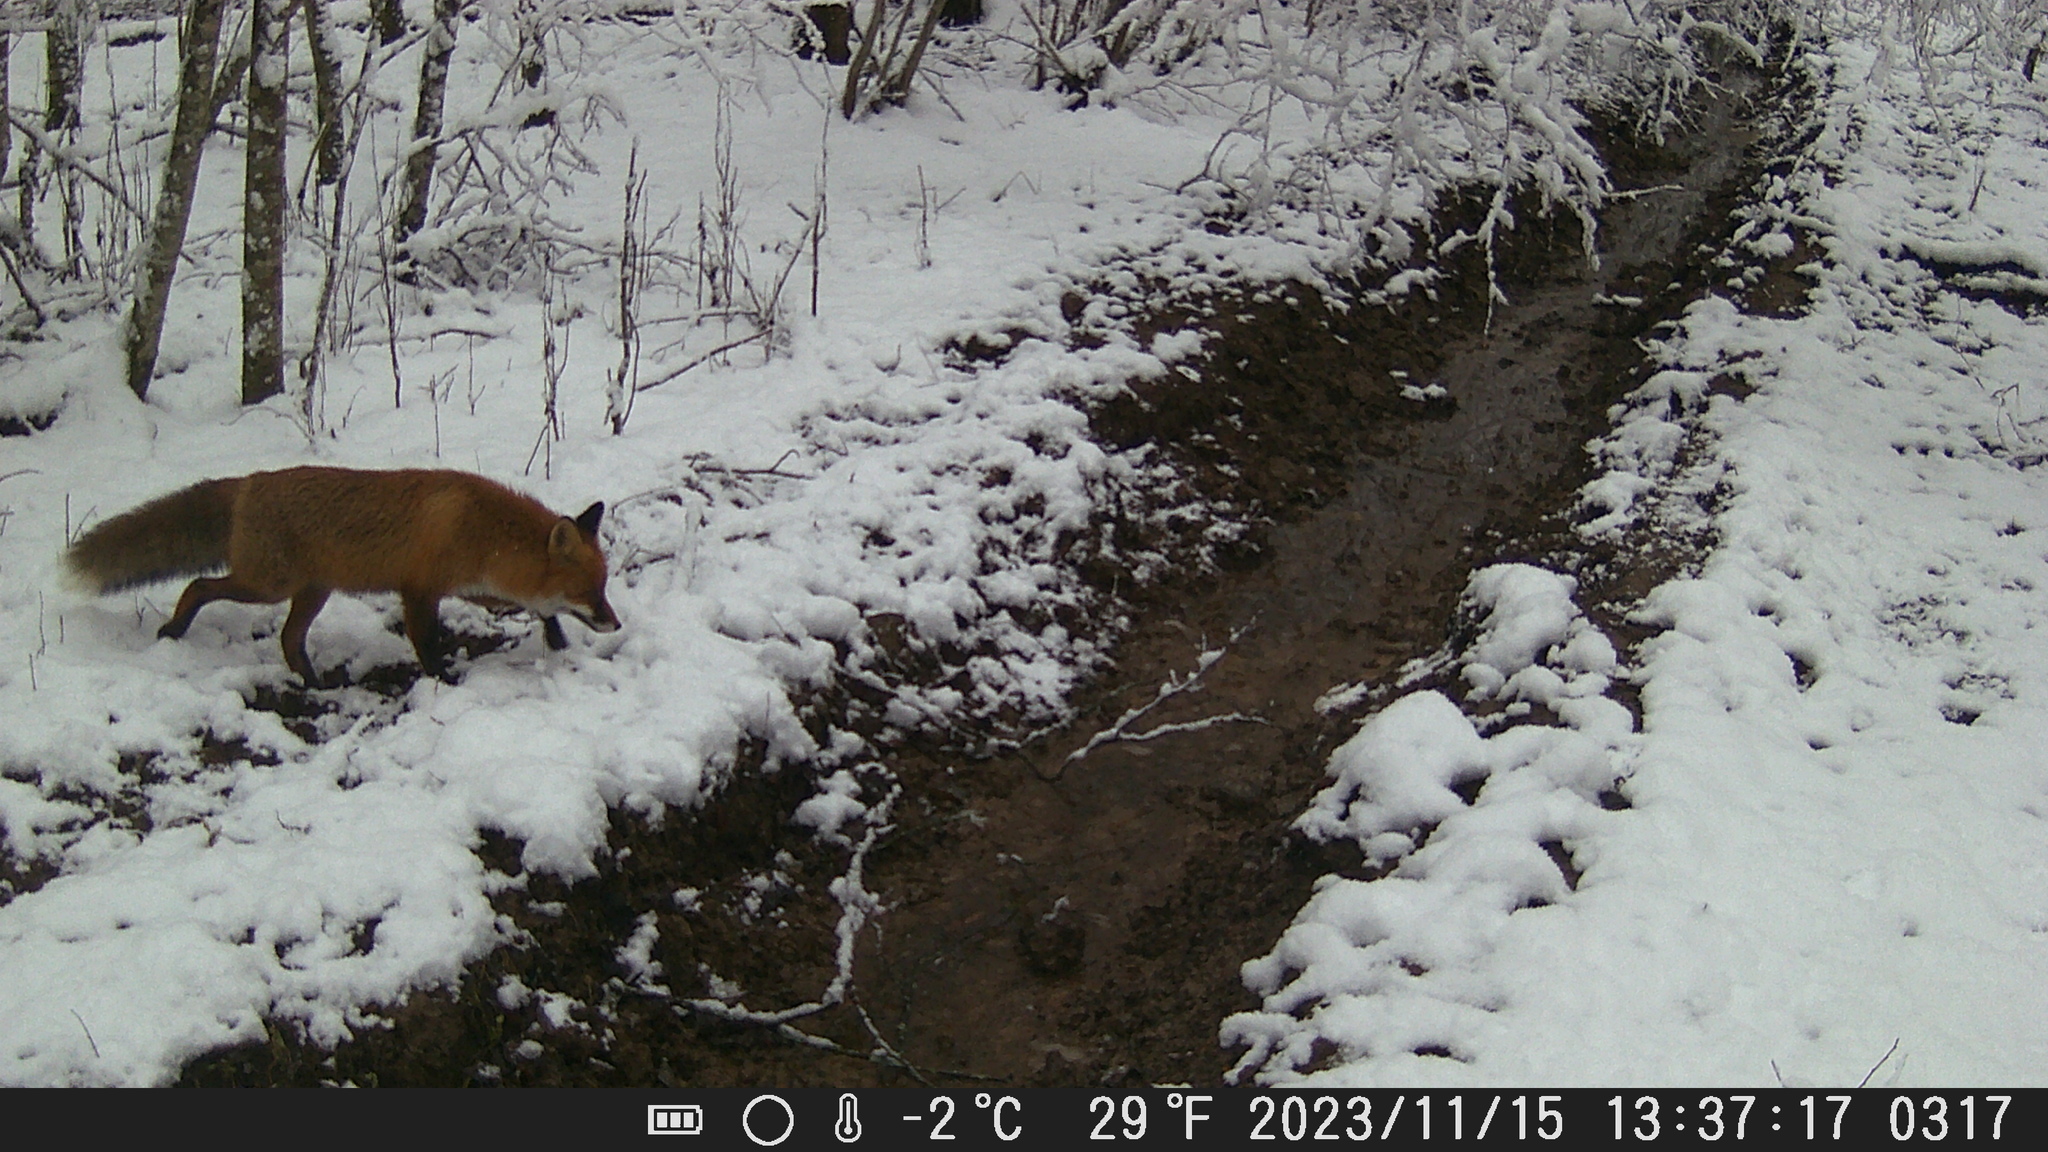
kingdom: Animalia
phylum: Chordata
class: Mammalia
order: Carnivora
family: Canidae
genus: Vulpes
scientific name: Vulpes vulpes
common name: Red fox
